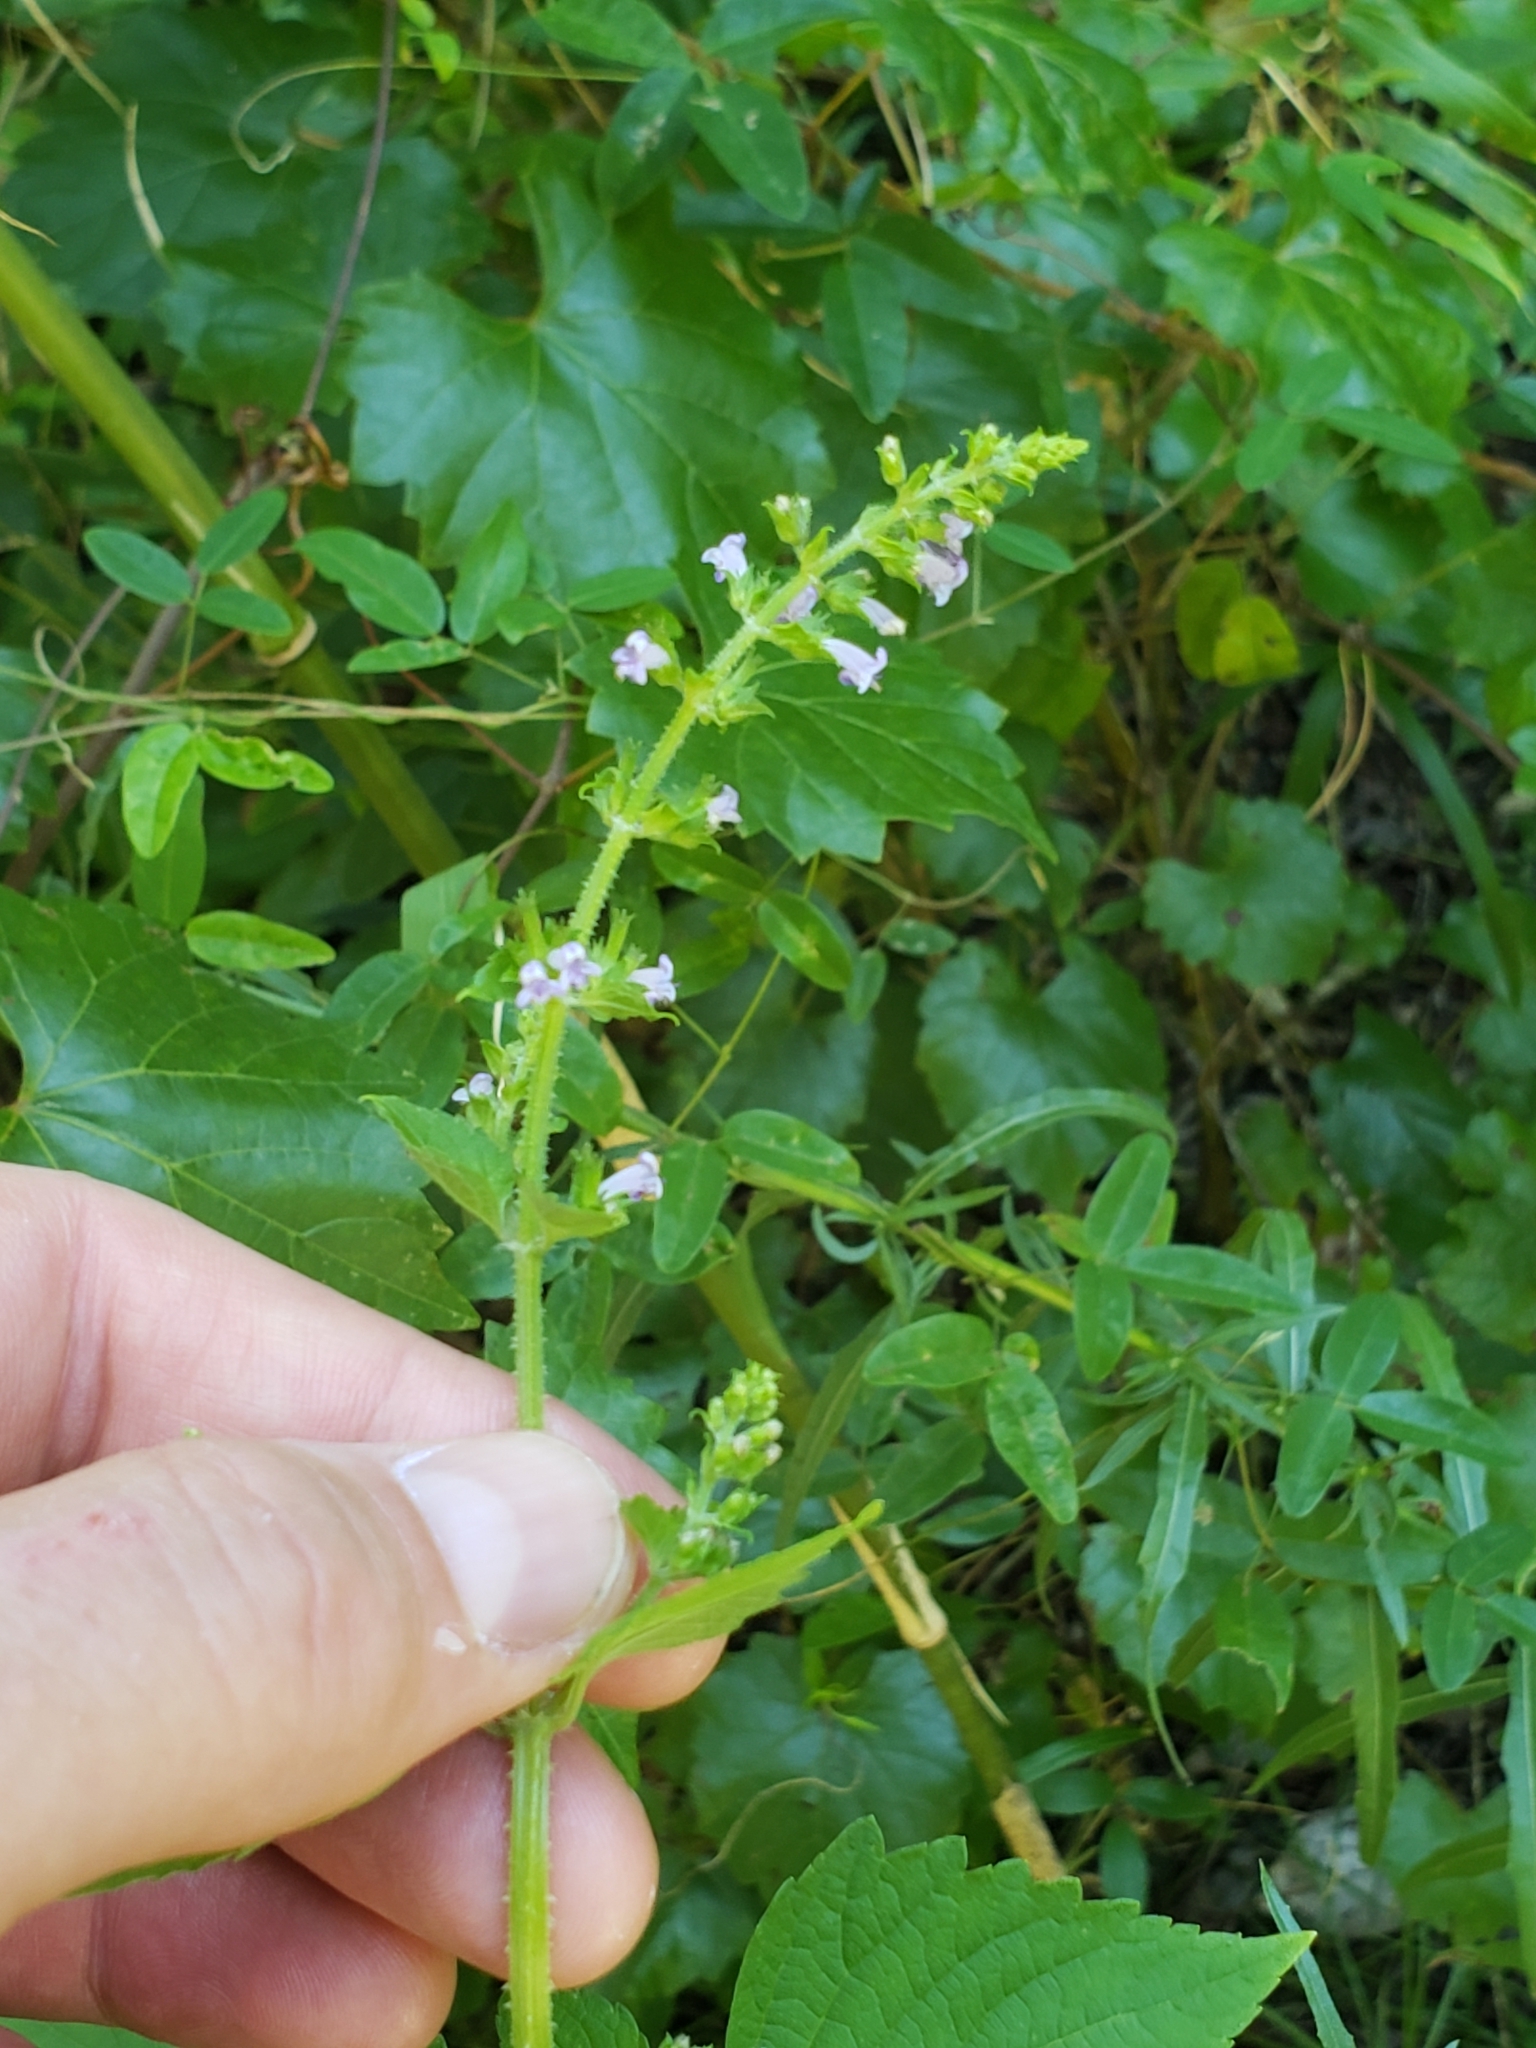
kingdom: Plantae
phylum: Tracheophyta
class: Magnoliopsida
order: Lamiales
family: Lamiaceae
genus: Cantinoa
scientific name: Cantinoa mutabilis
